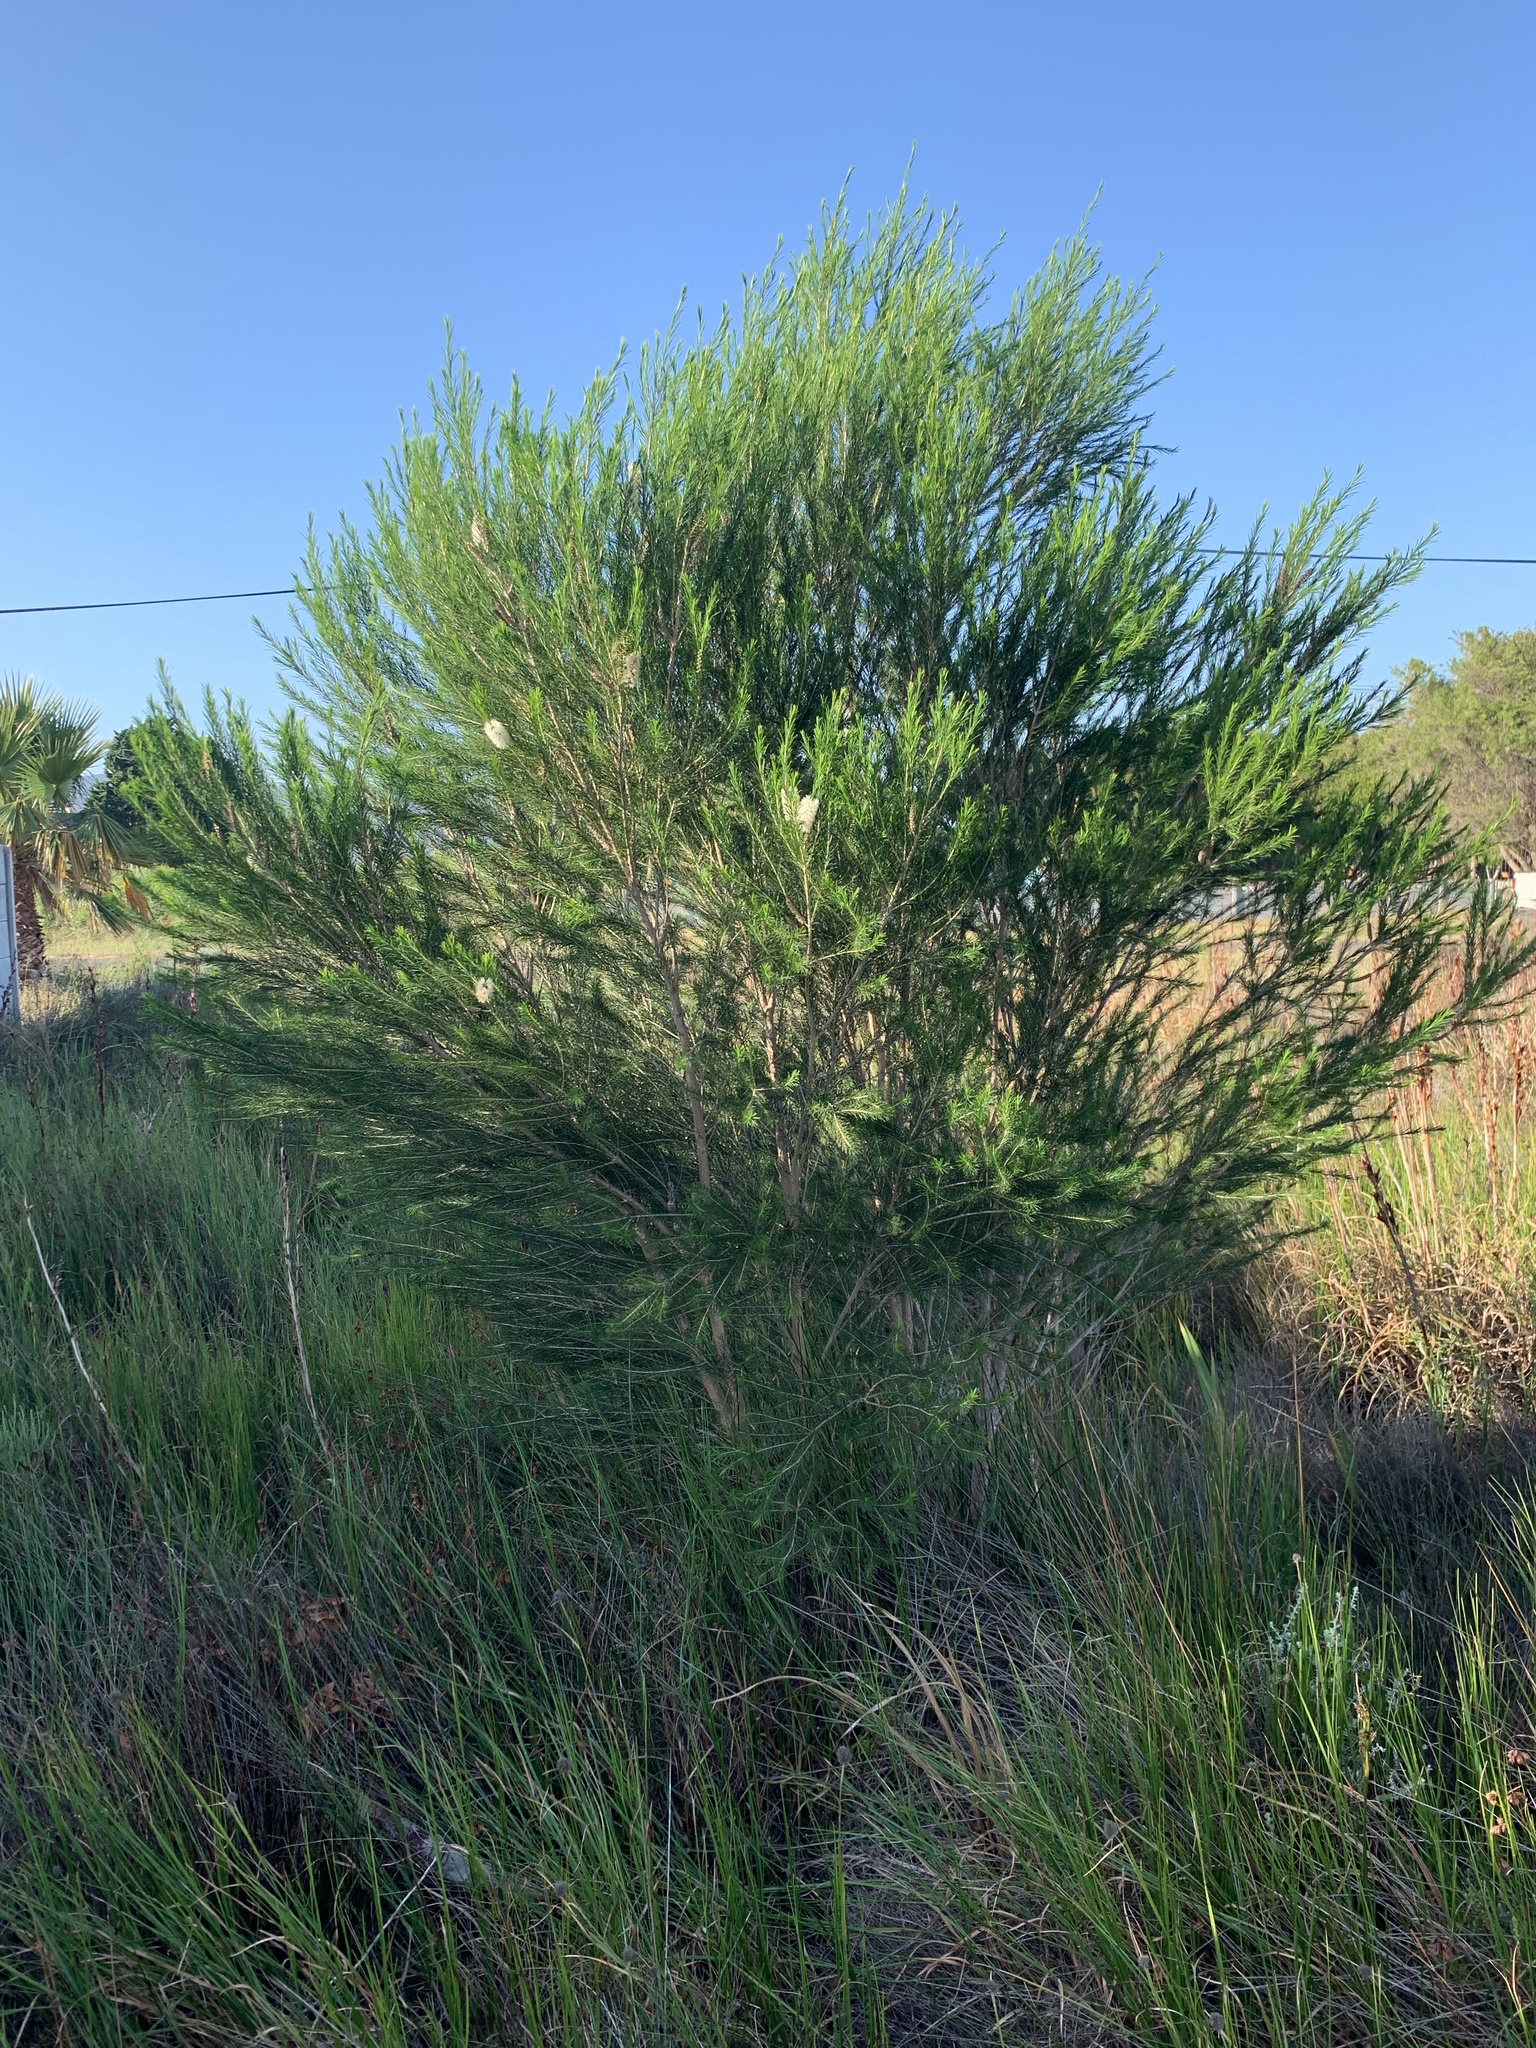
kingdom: Plantae
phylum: Tracheophyta
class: Magnoliopsida
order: Myrtales
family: Myrtaceae
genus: Melaleuca
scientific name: Melaleuca armillaris
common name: Bracelet honey myrtle
